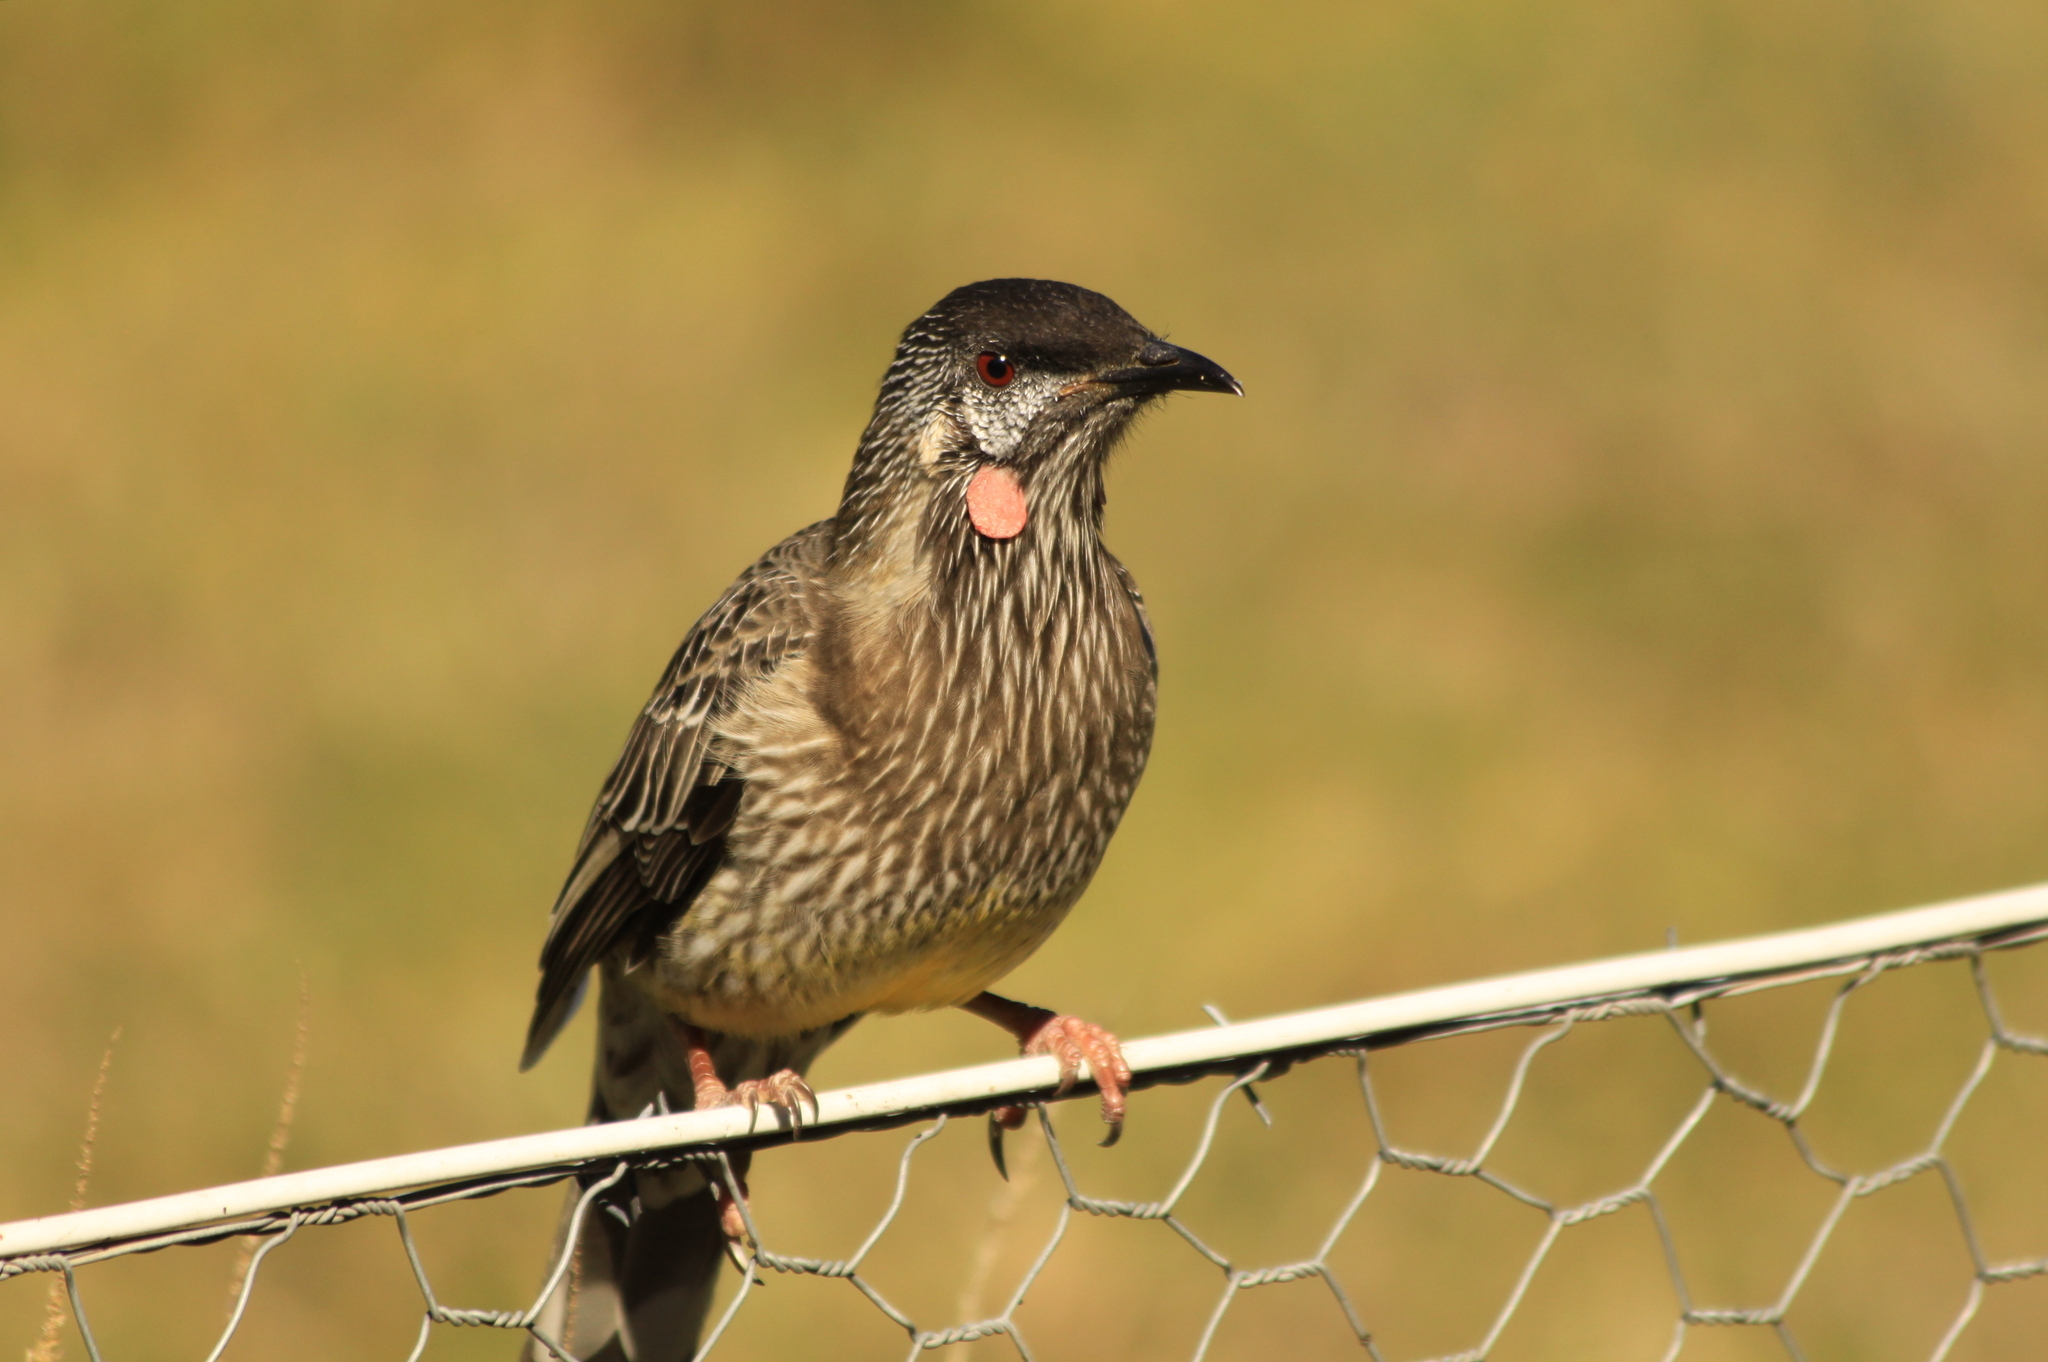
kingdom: Animalia
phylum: Chordata
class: Aves
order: Passeriformes
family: Meliphagidae
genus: Anthochaera
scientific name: Anthochaera carunculata
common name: Red wattlebird
